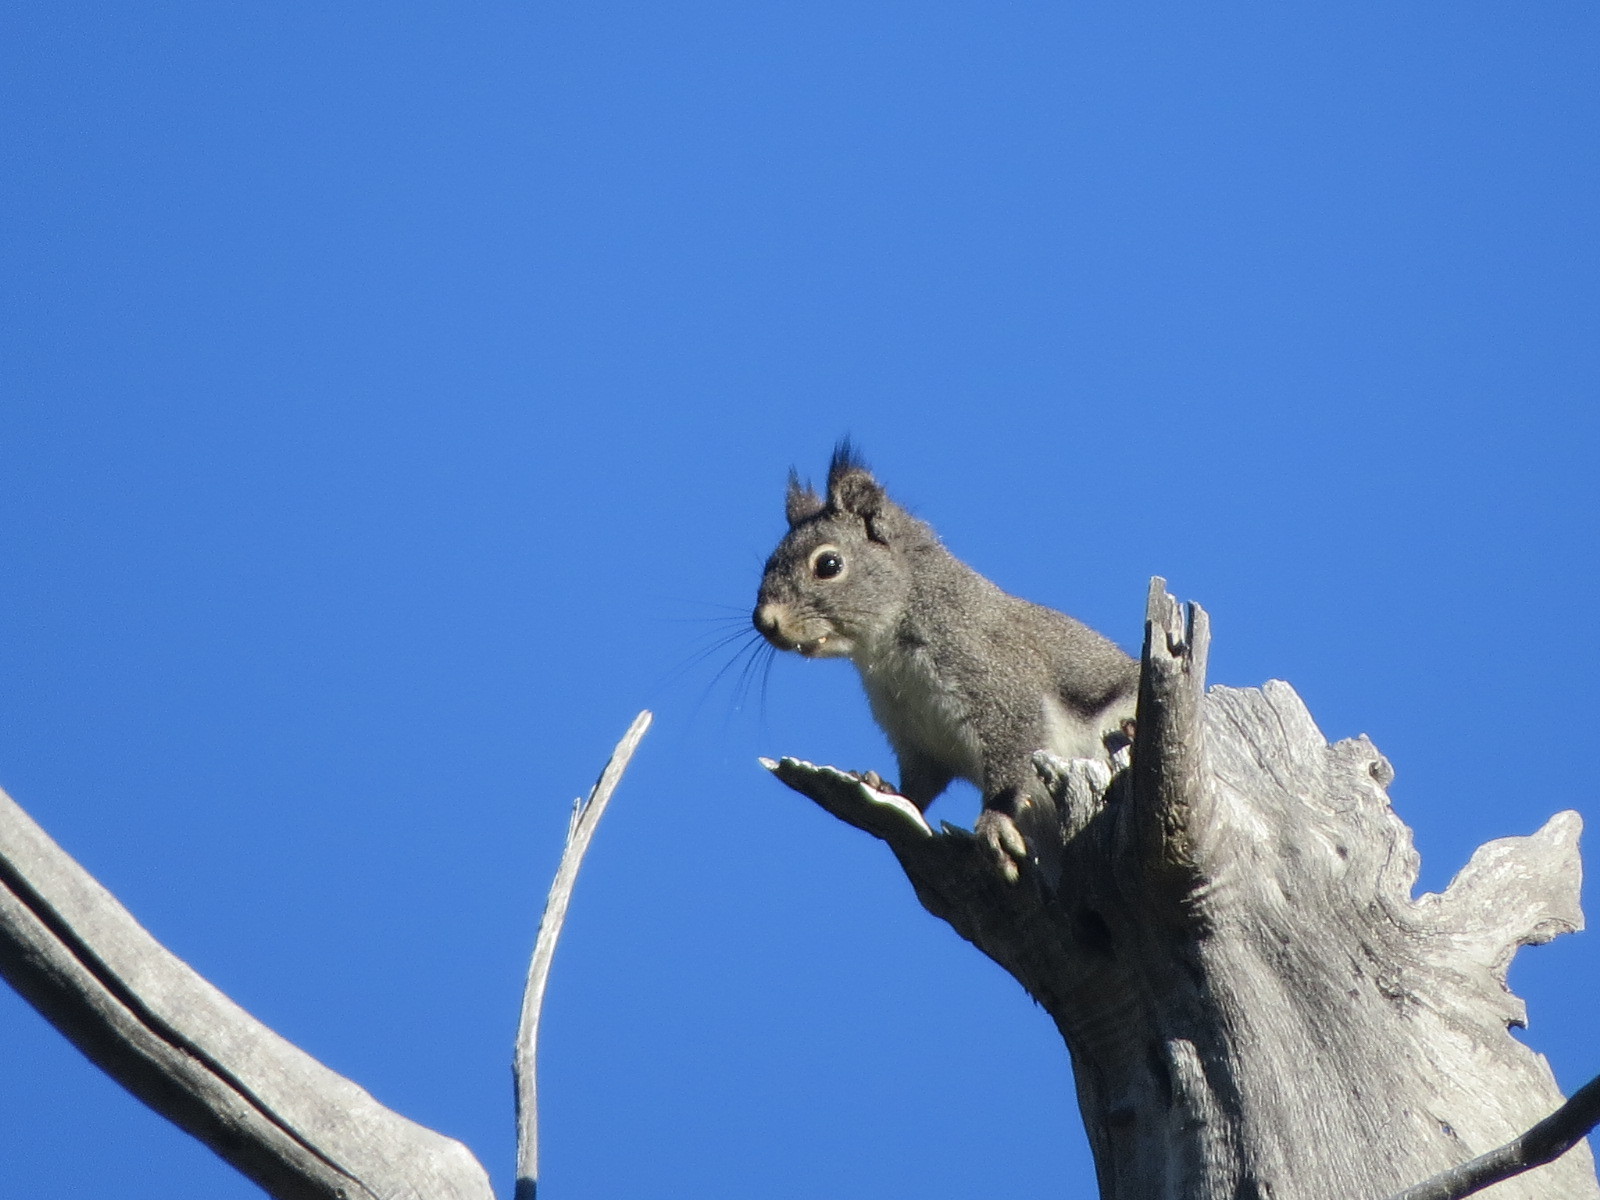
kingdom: Animalia
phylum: Chordata
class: Mammalia
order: Rodentia
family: Sciuridae
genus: Tamiasciurus
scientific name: Tamiasciurus douglasii
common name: Douglas's squirrel
